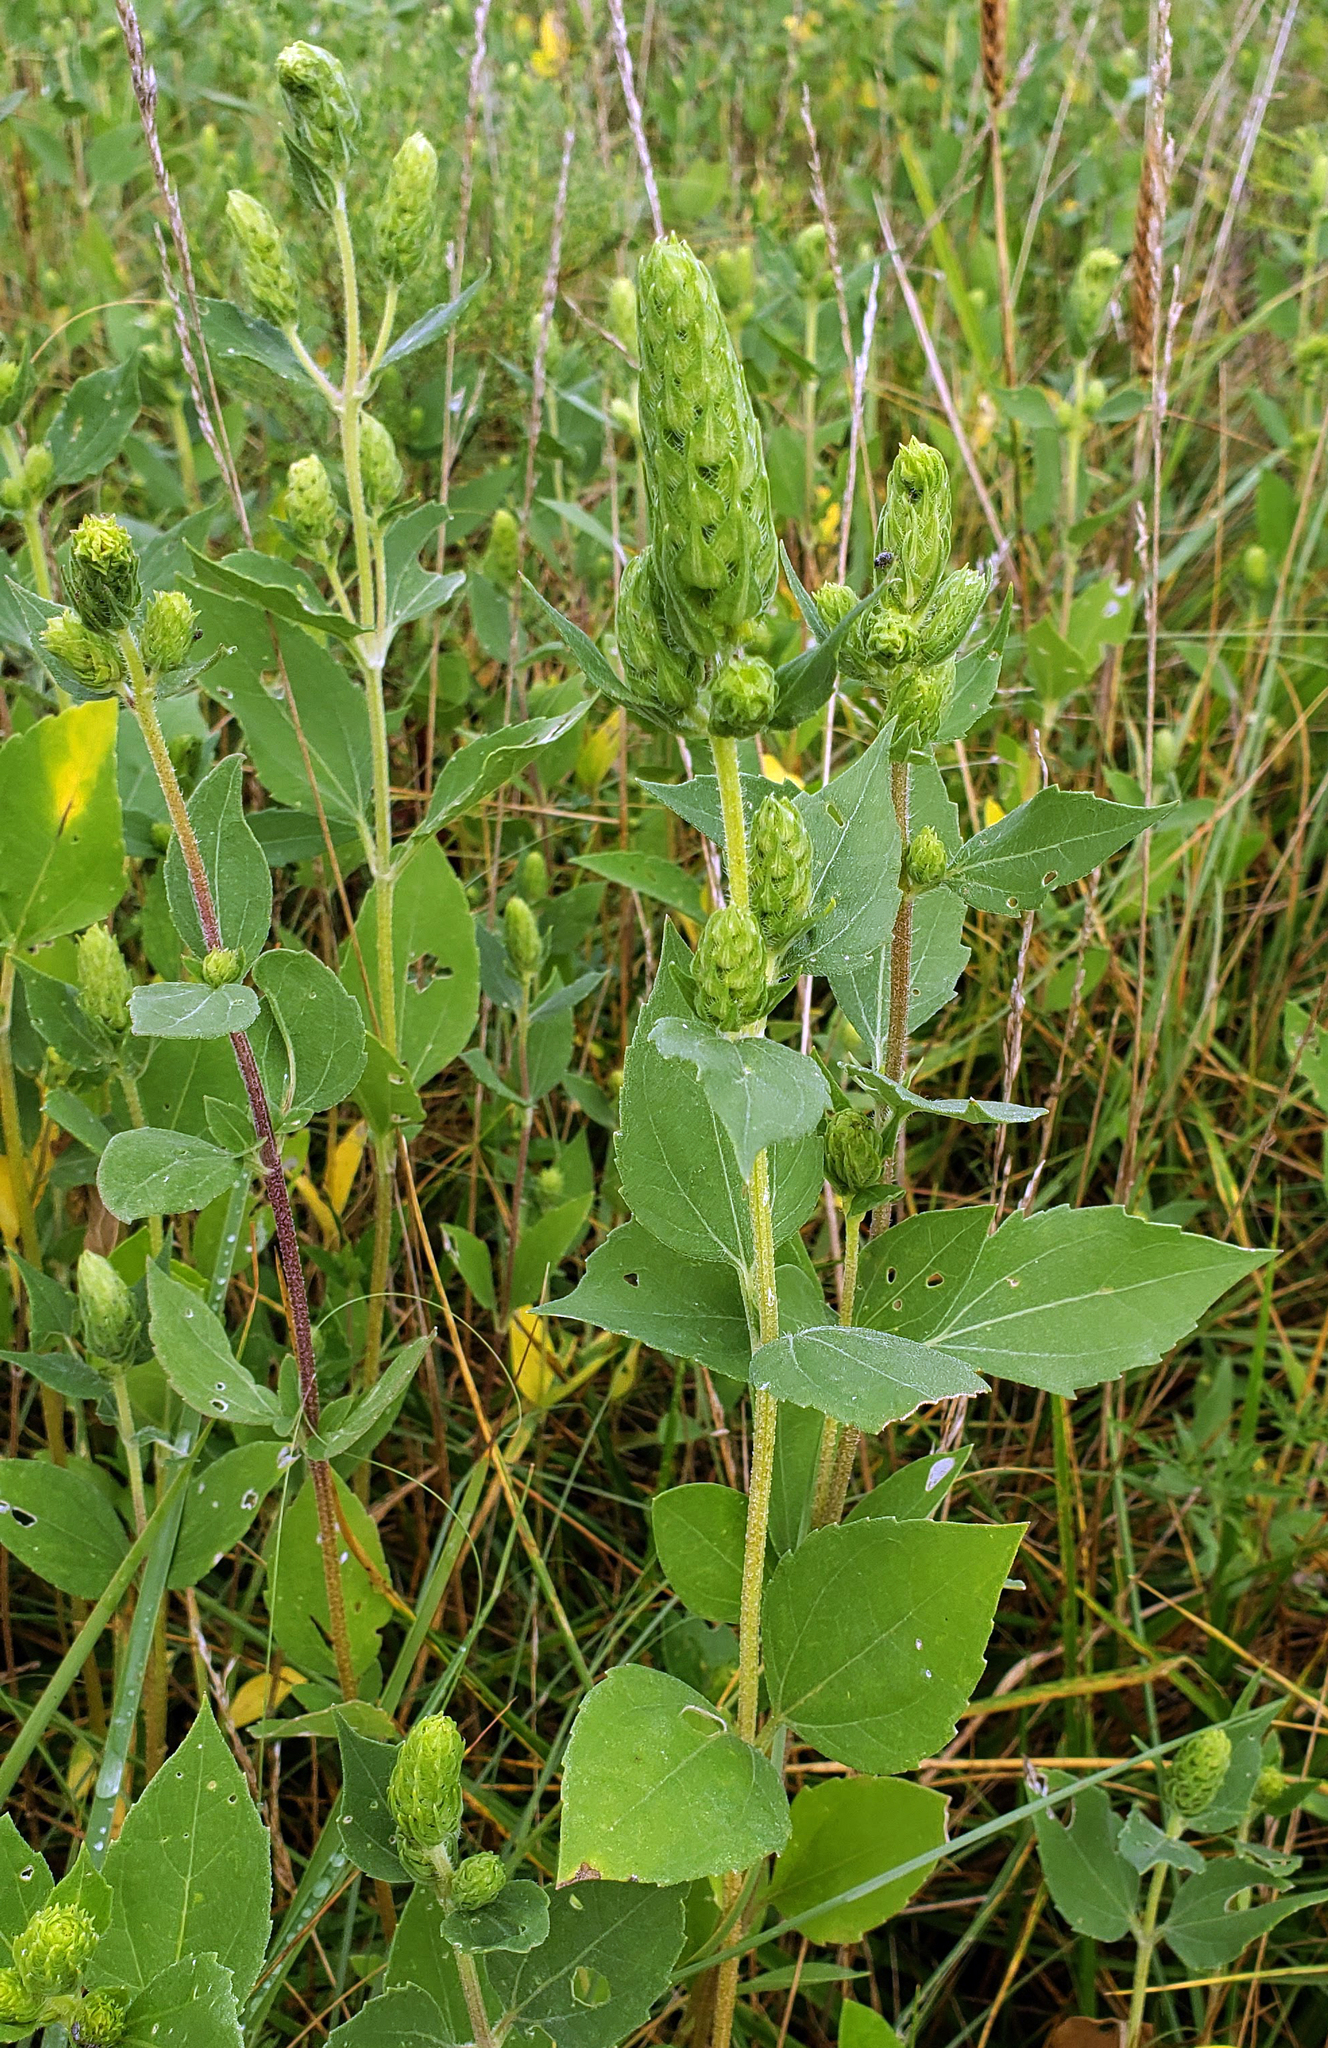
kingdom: Plantae
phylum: Tracheophyta
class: Magnoliopsida
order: Asterales
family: Asteraceae
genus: Iva
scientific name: Iva annua
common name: Marsh-elder
